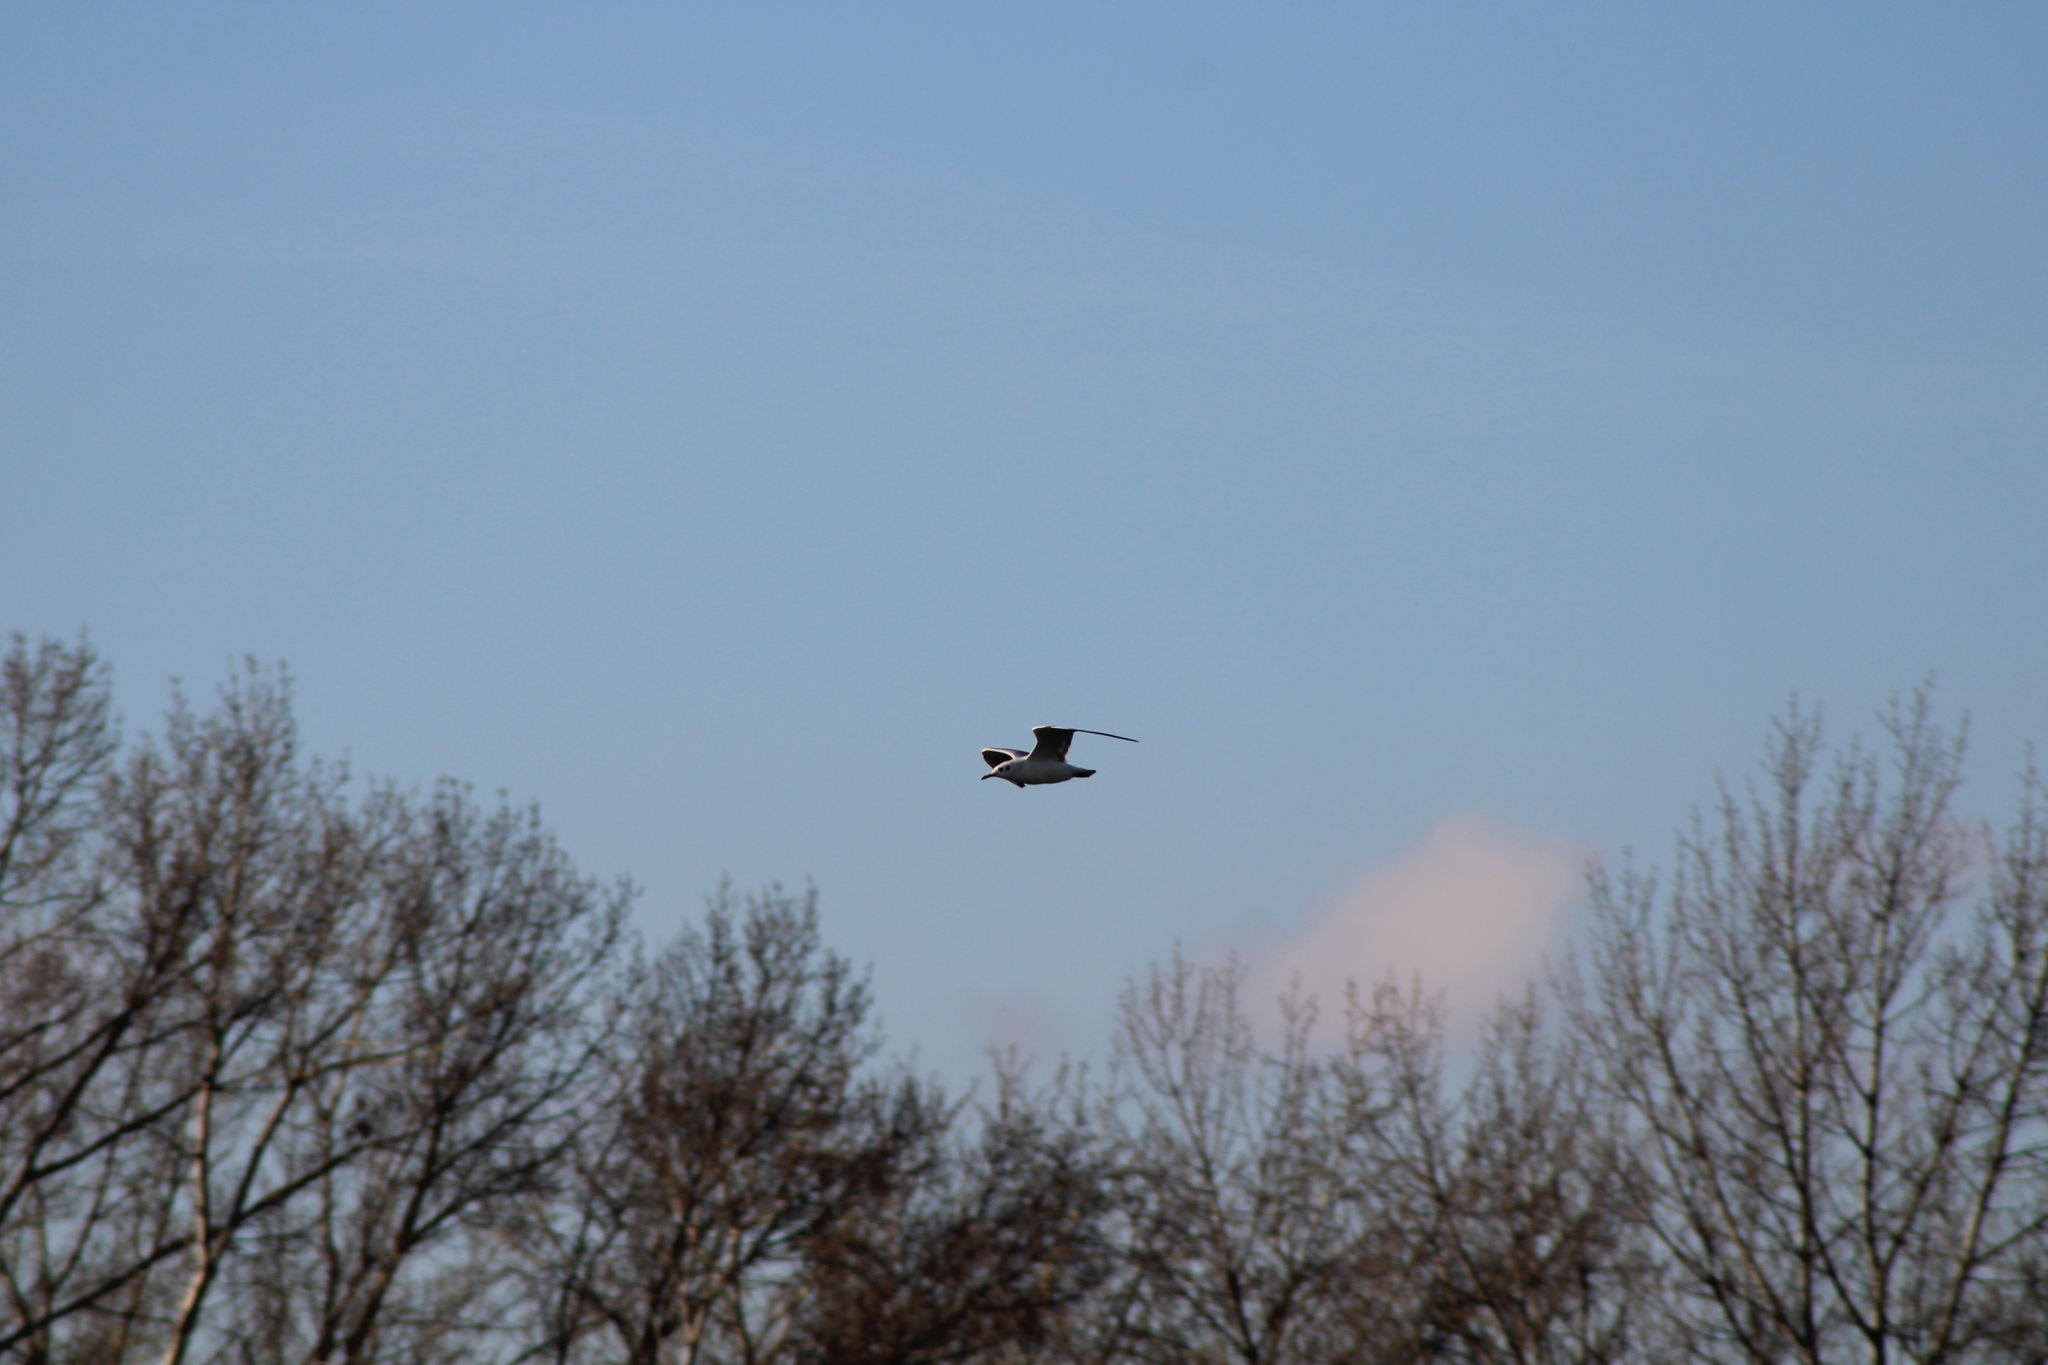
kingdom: Animalia
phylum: Chordata
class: Aves
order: Charadriiformes
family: Laridae
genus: Chroicocephalus
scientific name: Chroicocephalus ridibundus
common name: Black-headed gull
